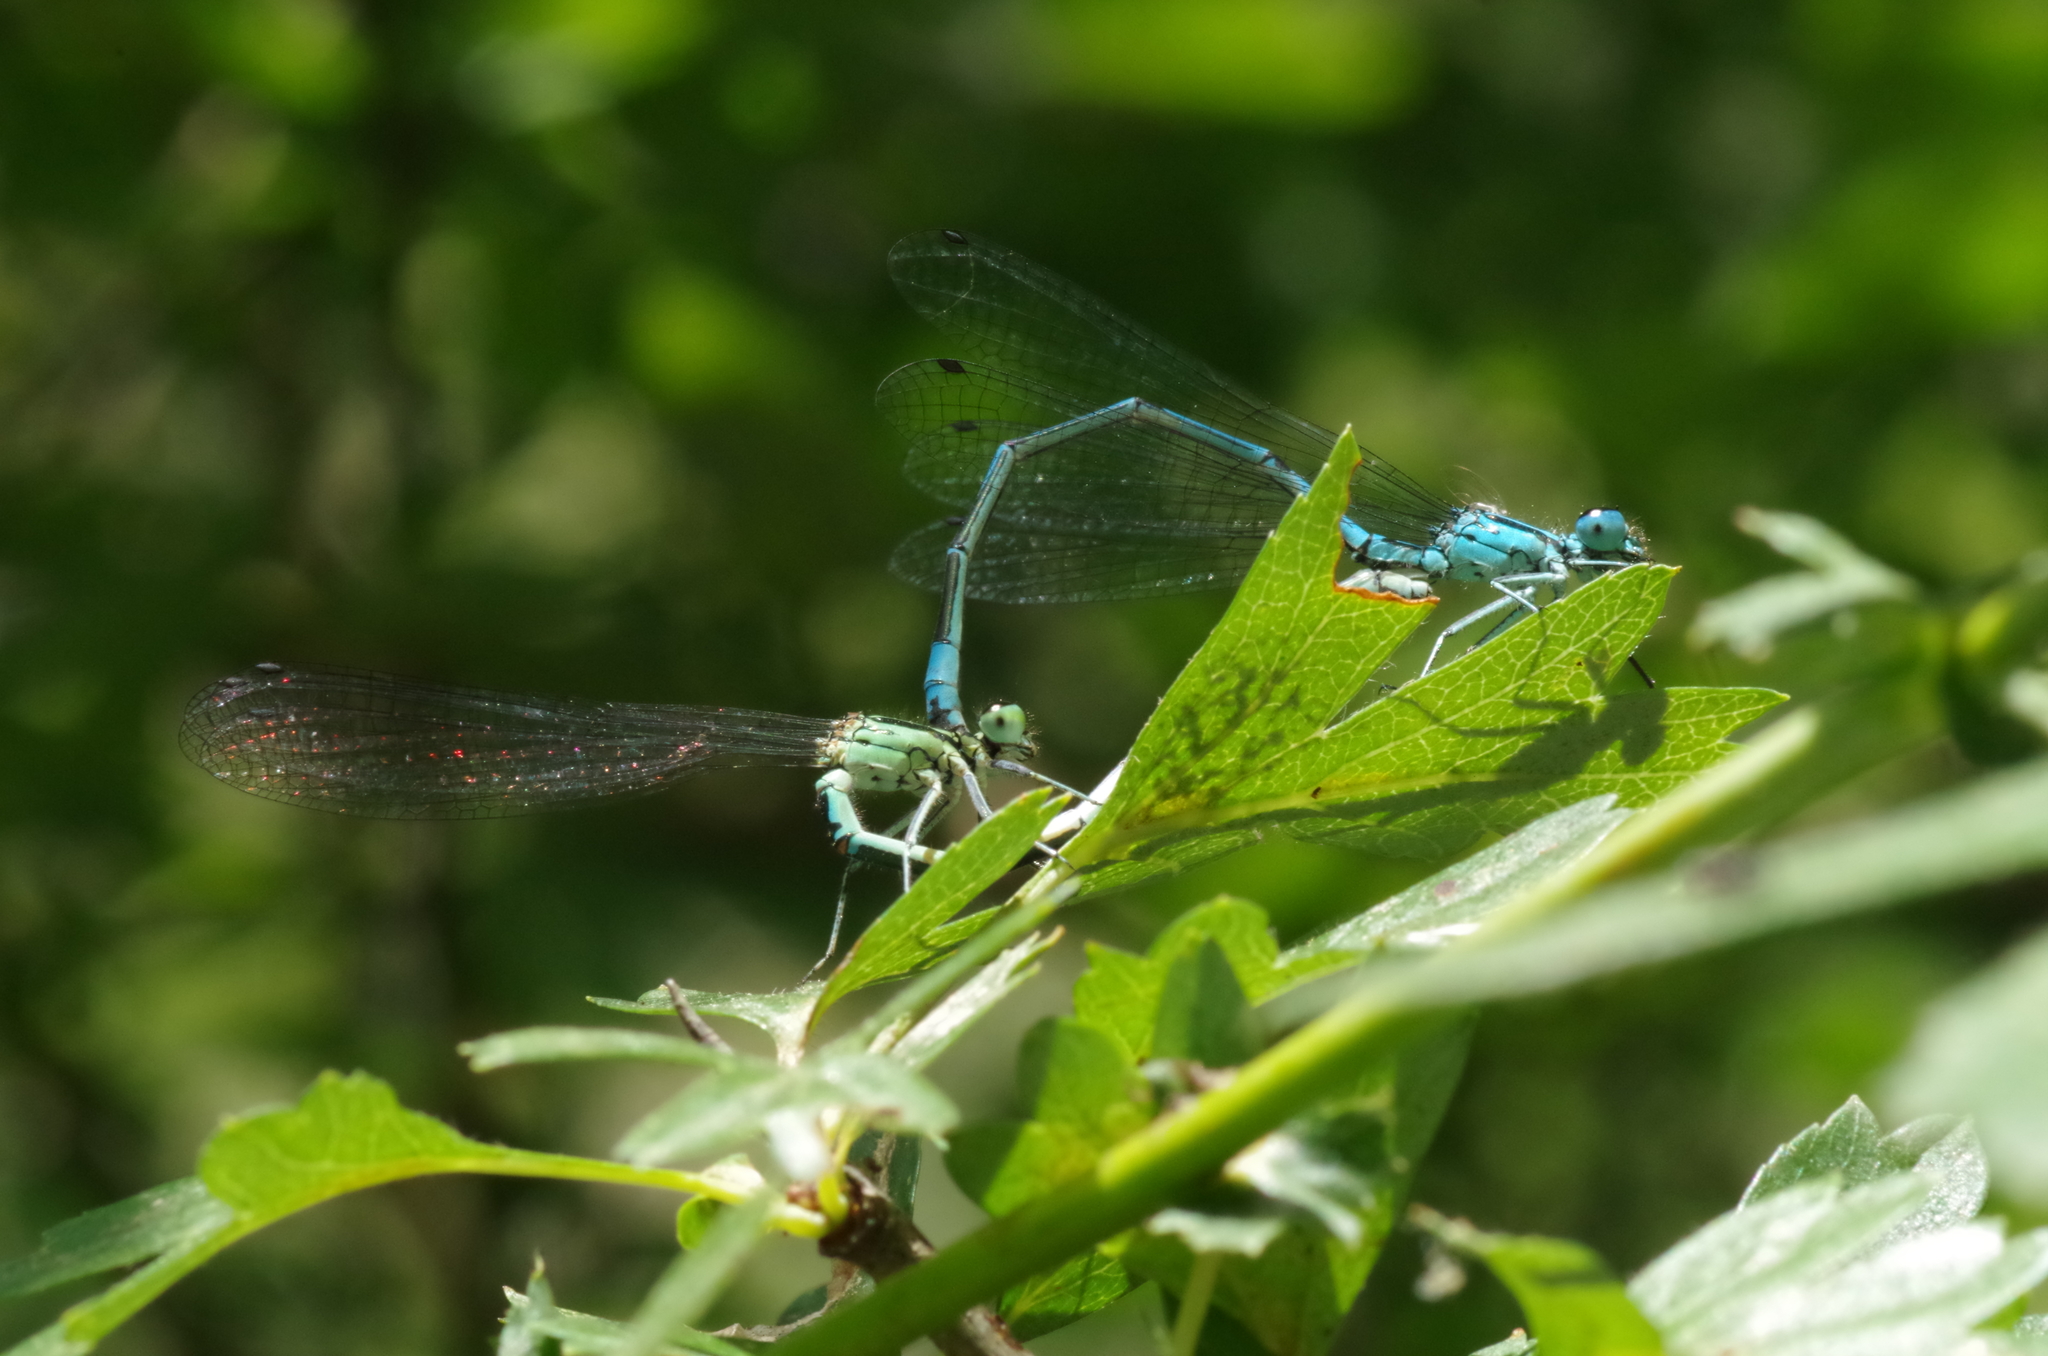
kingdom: Animalia
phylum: Arthropoda
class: Insecta
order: Odonata
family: Coenagrionidae
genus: Coenagrion
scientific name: Coenagrion puella
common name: Azure damselfly
